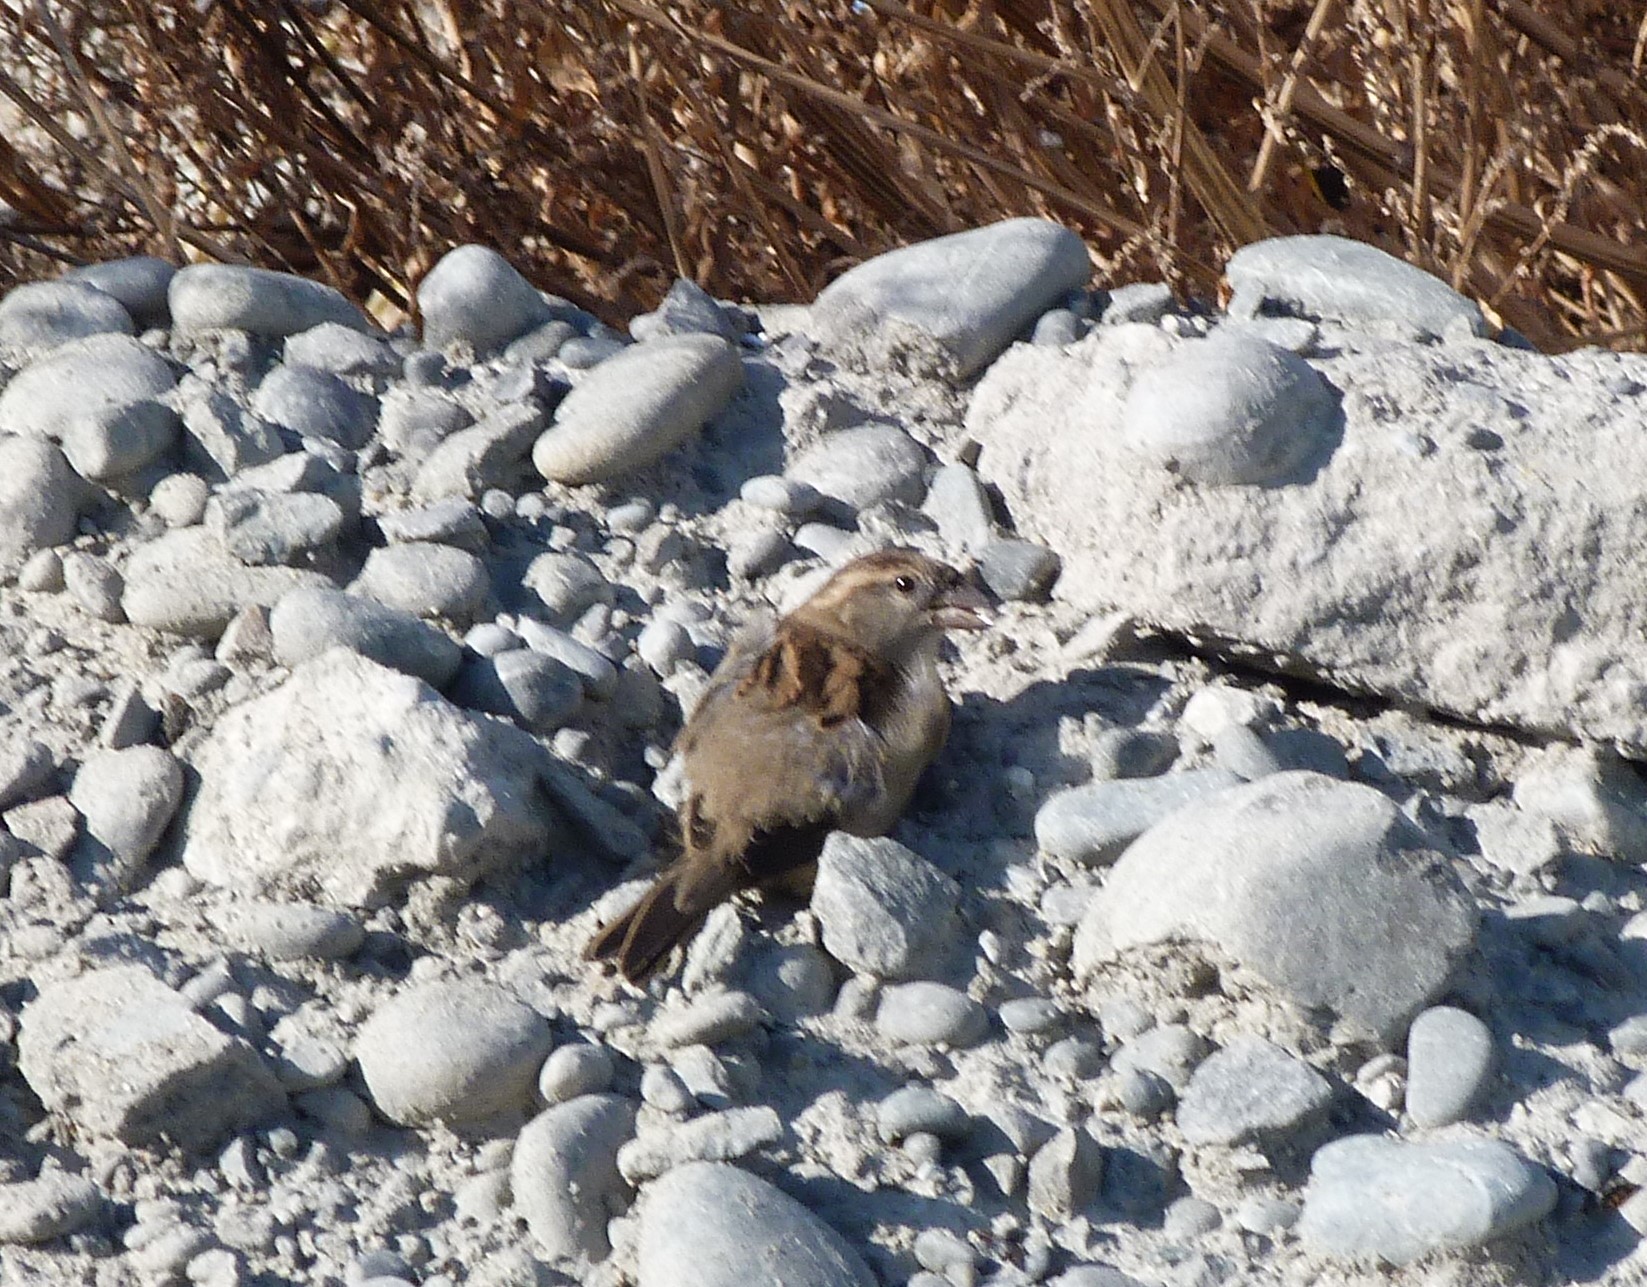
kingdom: Animalia
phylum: Chordata
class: Aves
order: Passeriformes
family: Passeridae
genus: Passer
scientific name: Passer domesticus
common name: House sparrow
